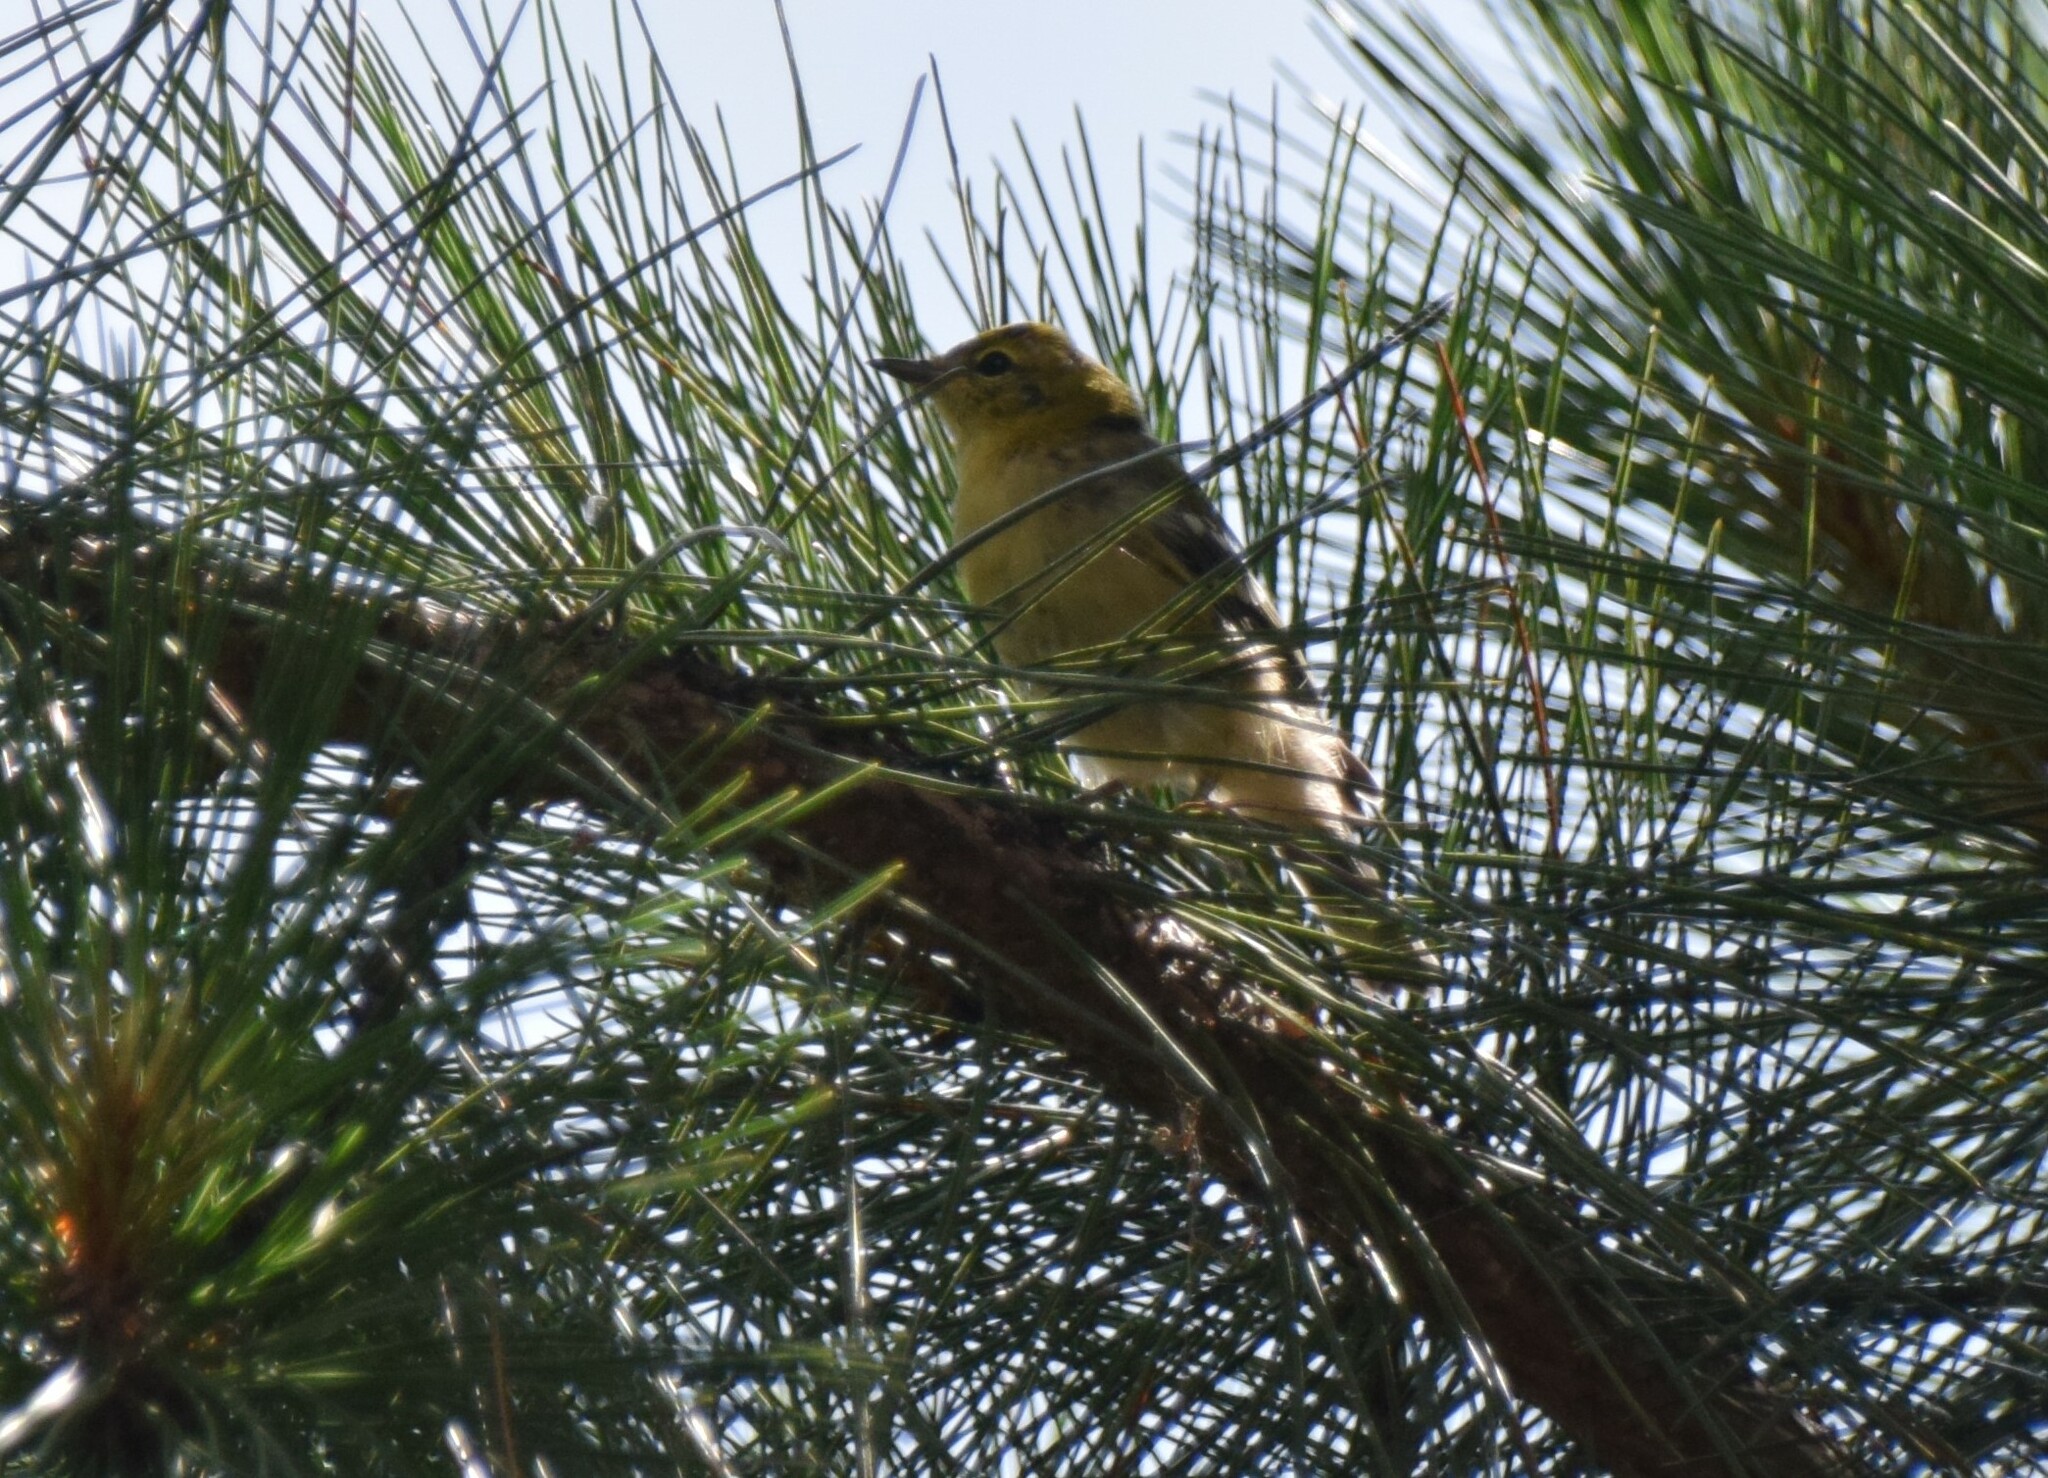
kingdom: Animalia
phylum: Chordata
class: Aves
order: Passeriformes
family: Parulidae
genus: Setophaga
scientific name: Setophaga pinus
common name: Pine warbler
